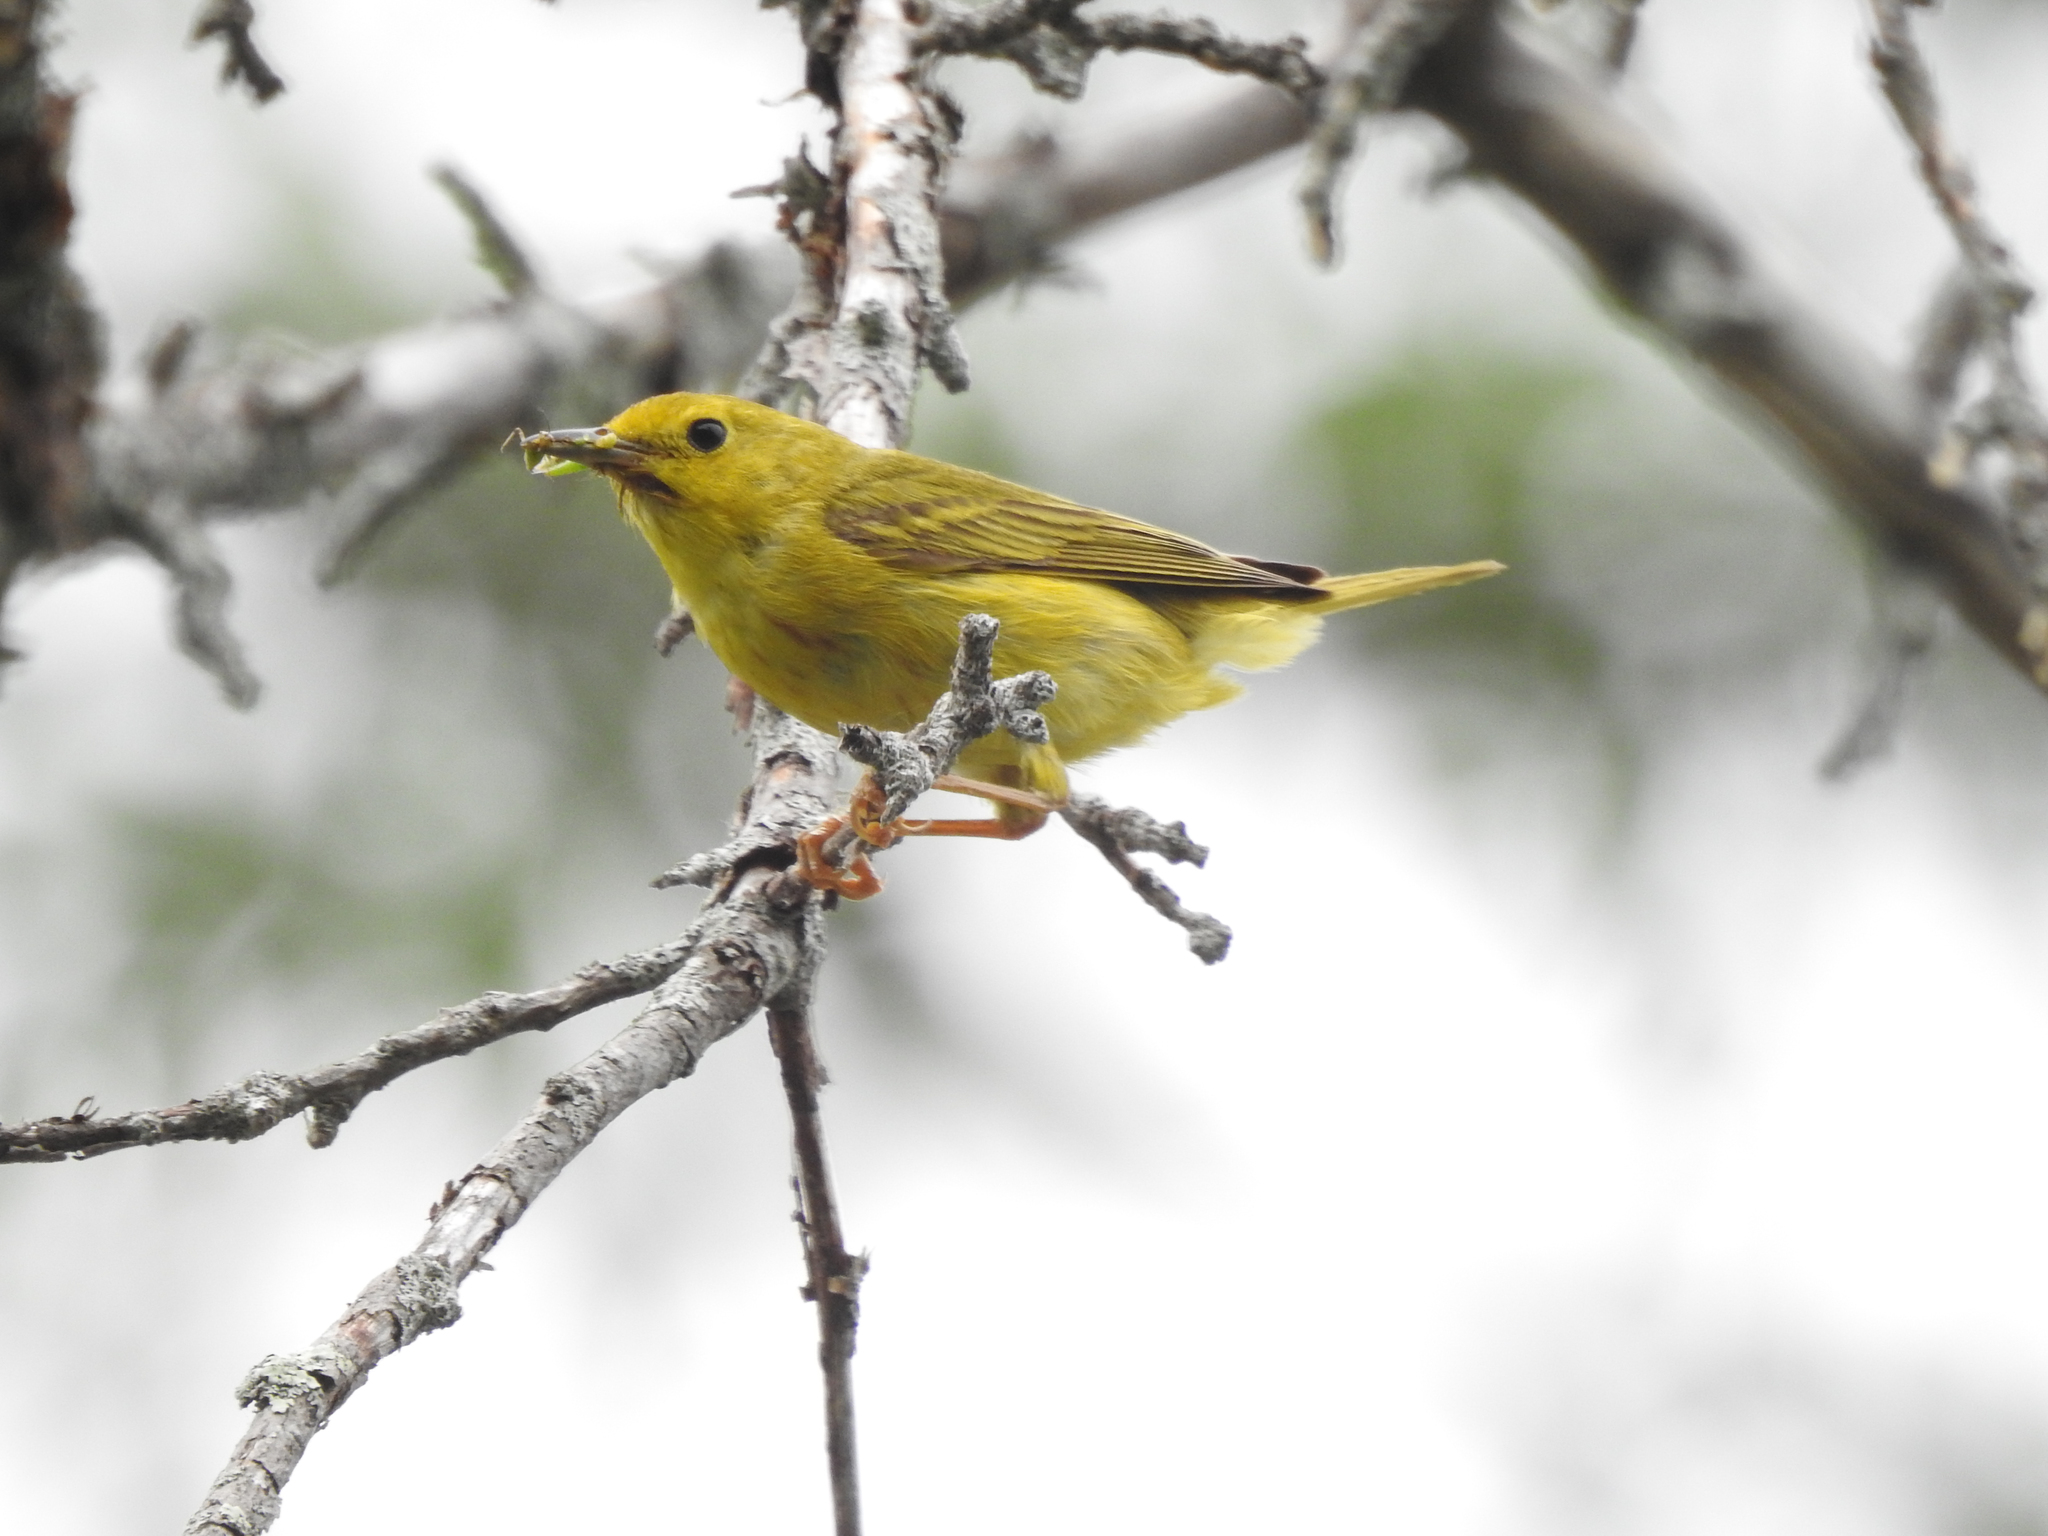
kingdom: Animalia
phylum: Chordata
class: Aves
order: Passeriformes
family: Parulidae
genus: Setophaga
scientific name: Setophaga petechia
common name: Yellow warbler
